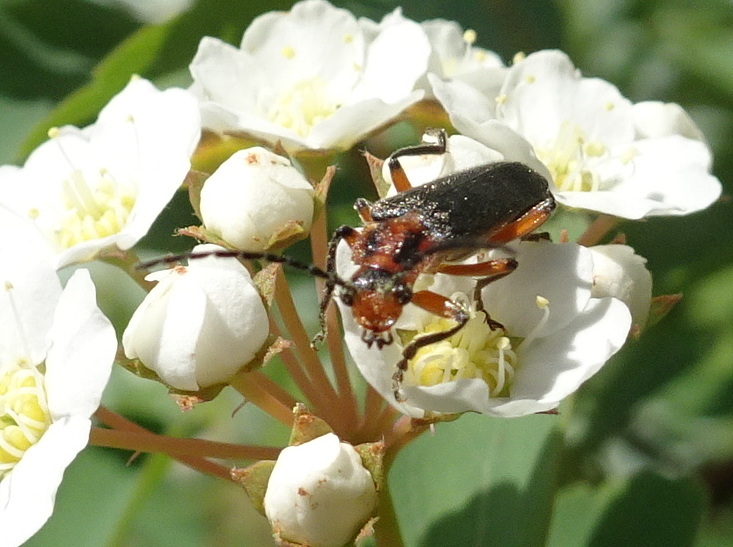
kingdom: Animalia
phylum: Arthropoda
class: Insecta
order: Coleoptera
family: Cantharidae
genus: Atalantycha
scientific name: Atalantycha bilineata
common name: Two-lined leatherwing
